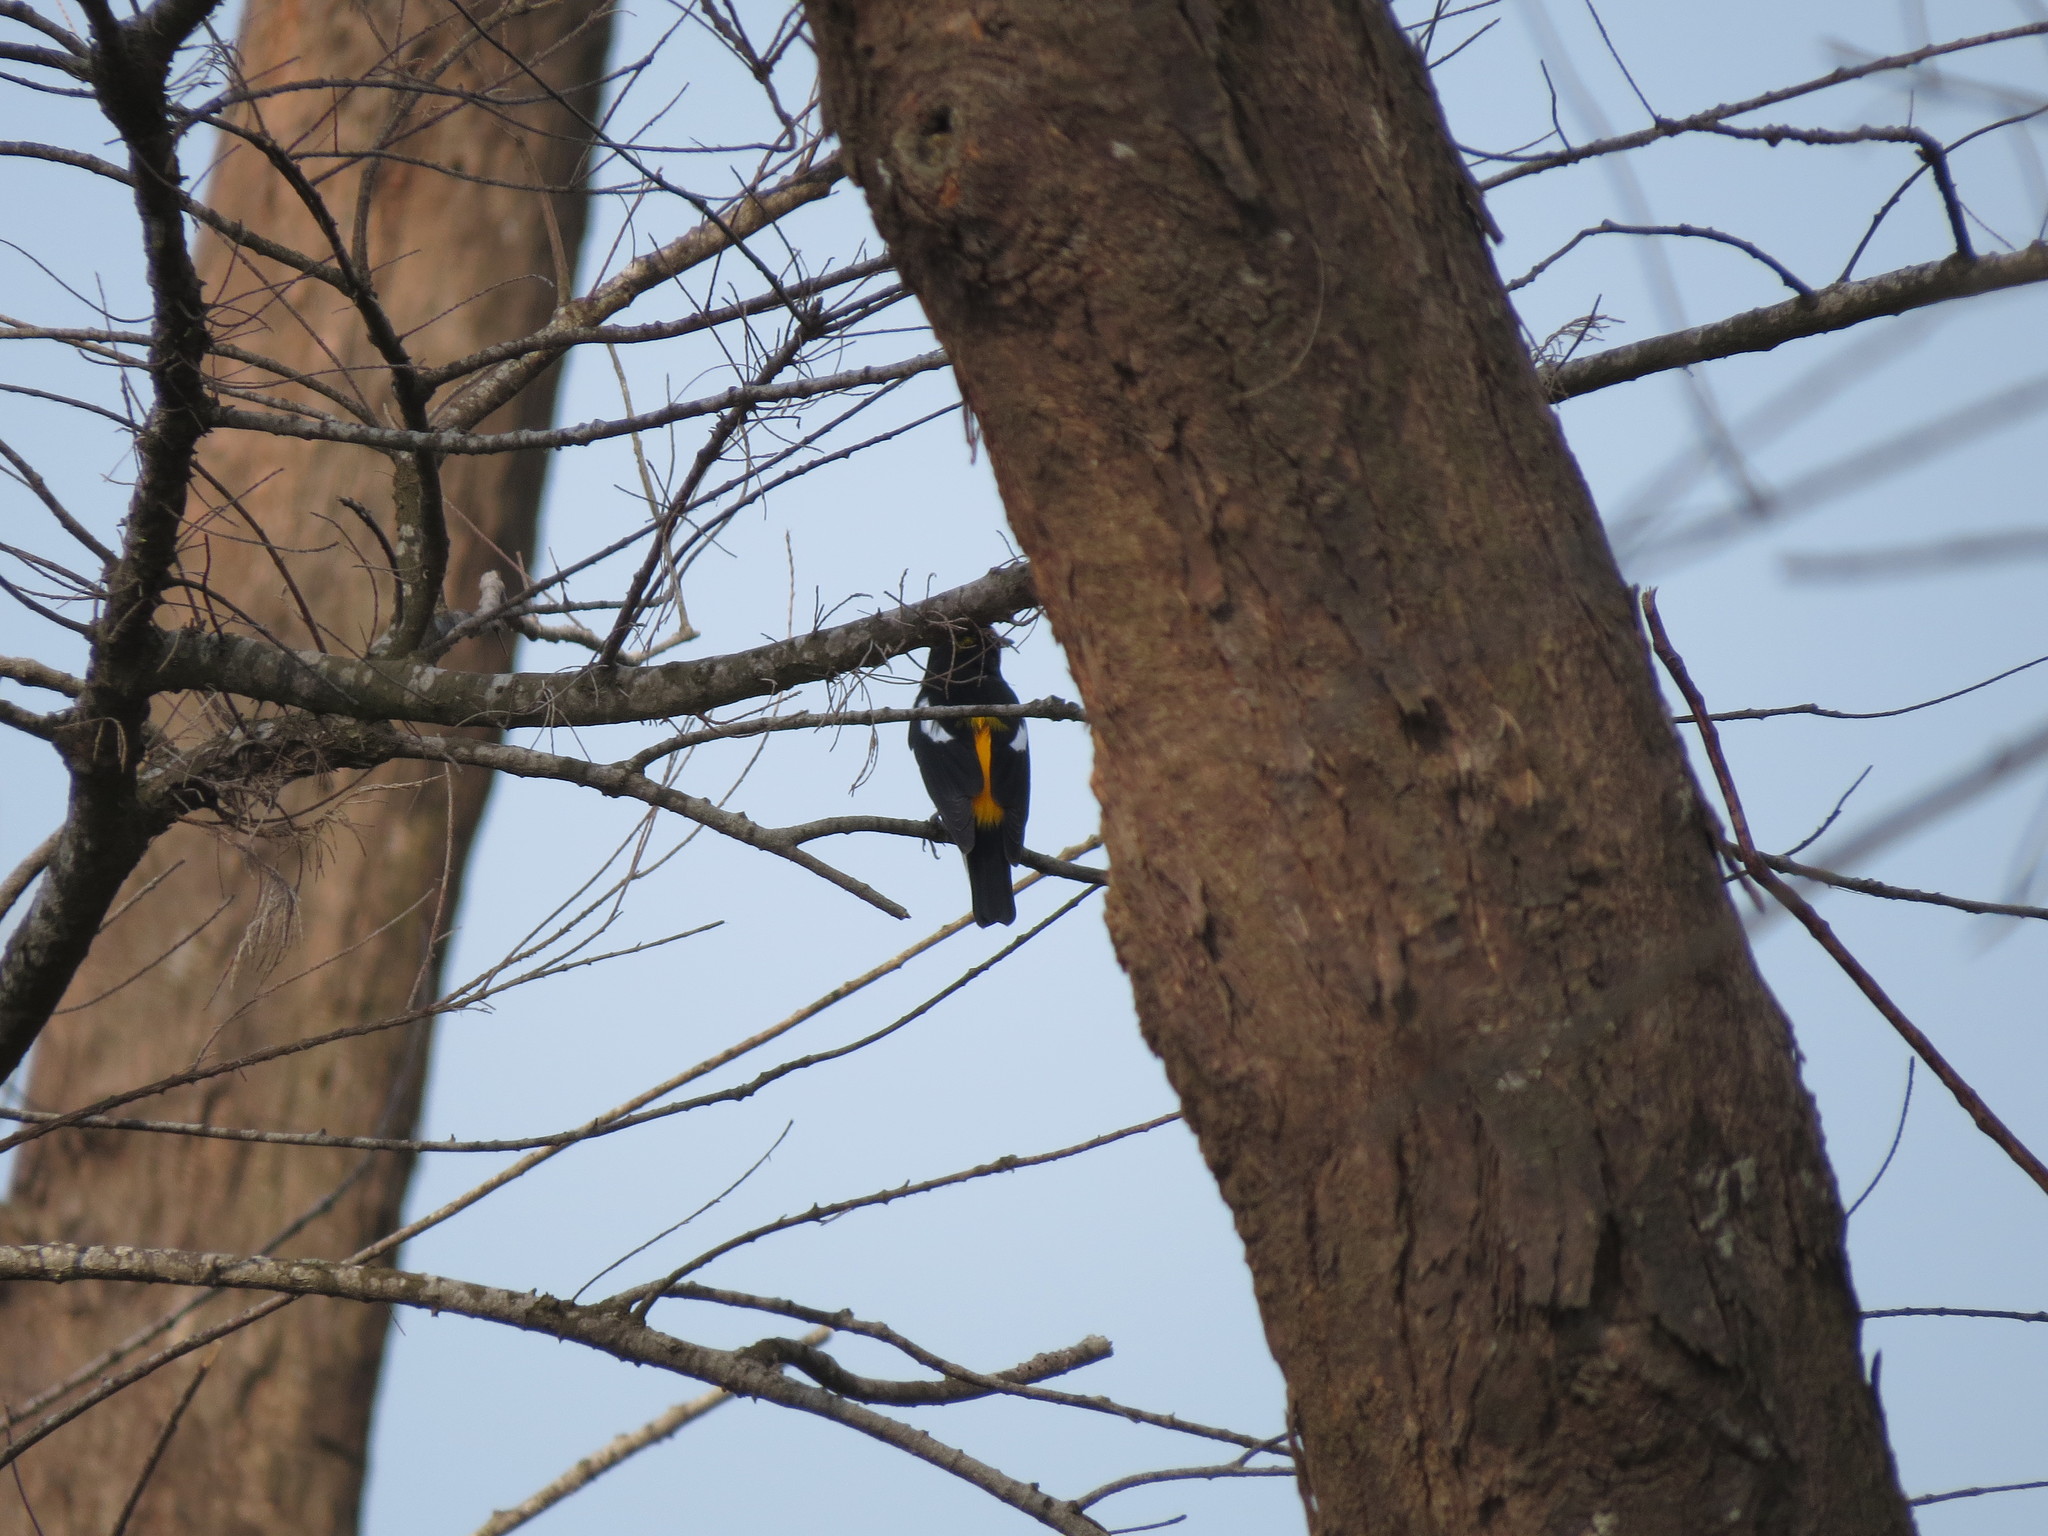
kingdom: Animalia
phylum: Chordata
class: Aves
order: Passeriformes
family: Muscicapidae
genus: Ficedula
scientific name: Ficedula narcissina
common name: Narcissus flycatcher
